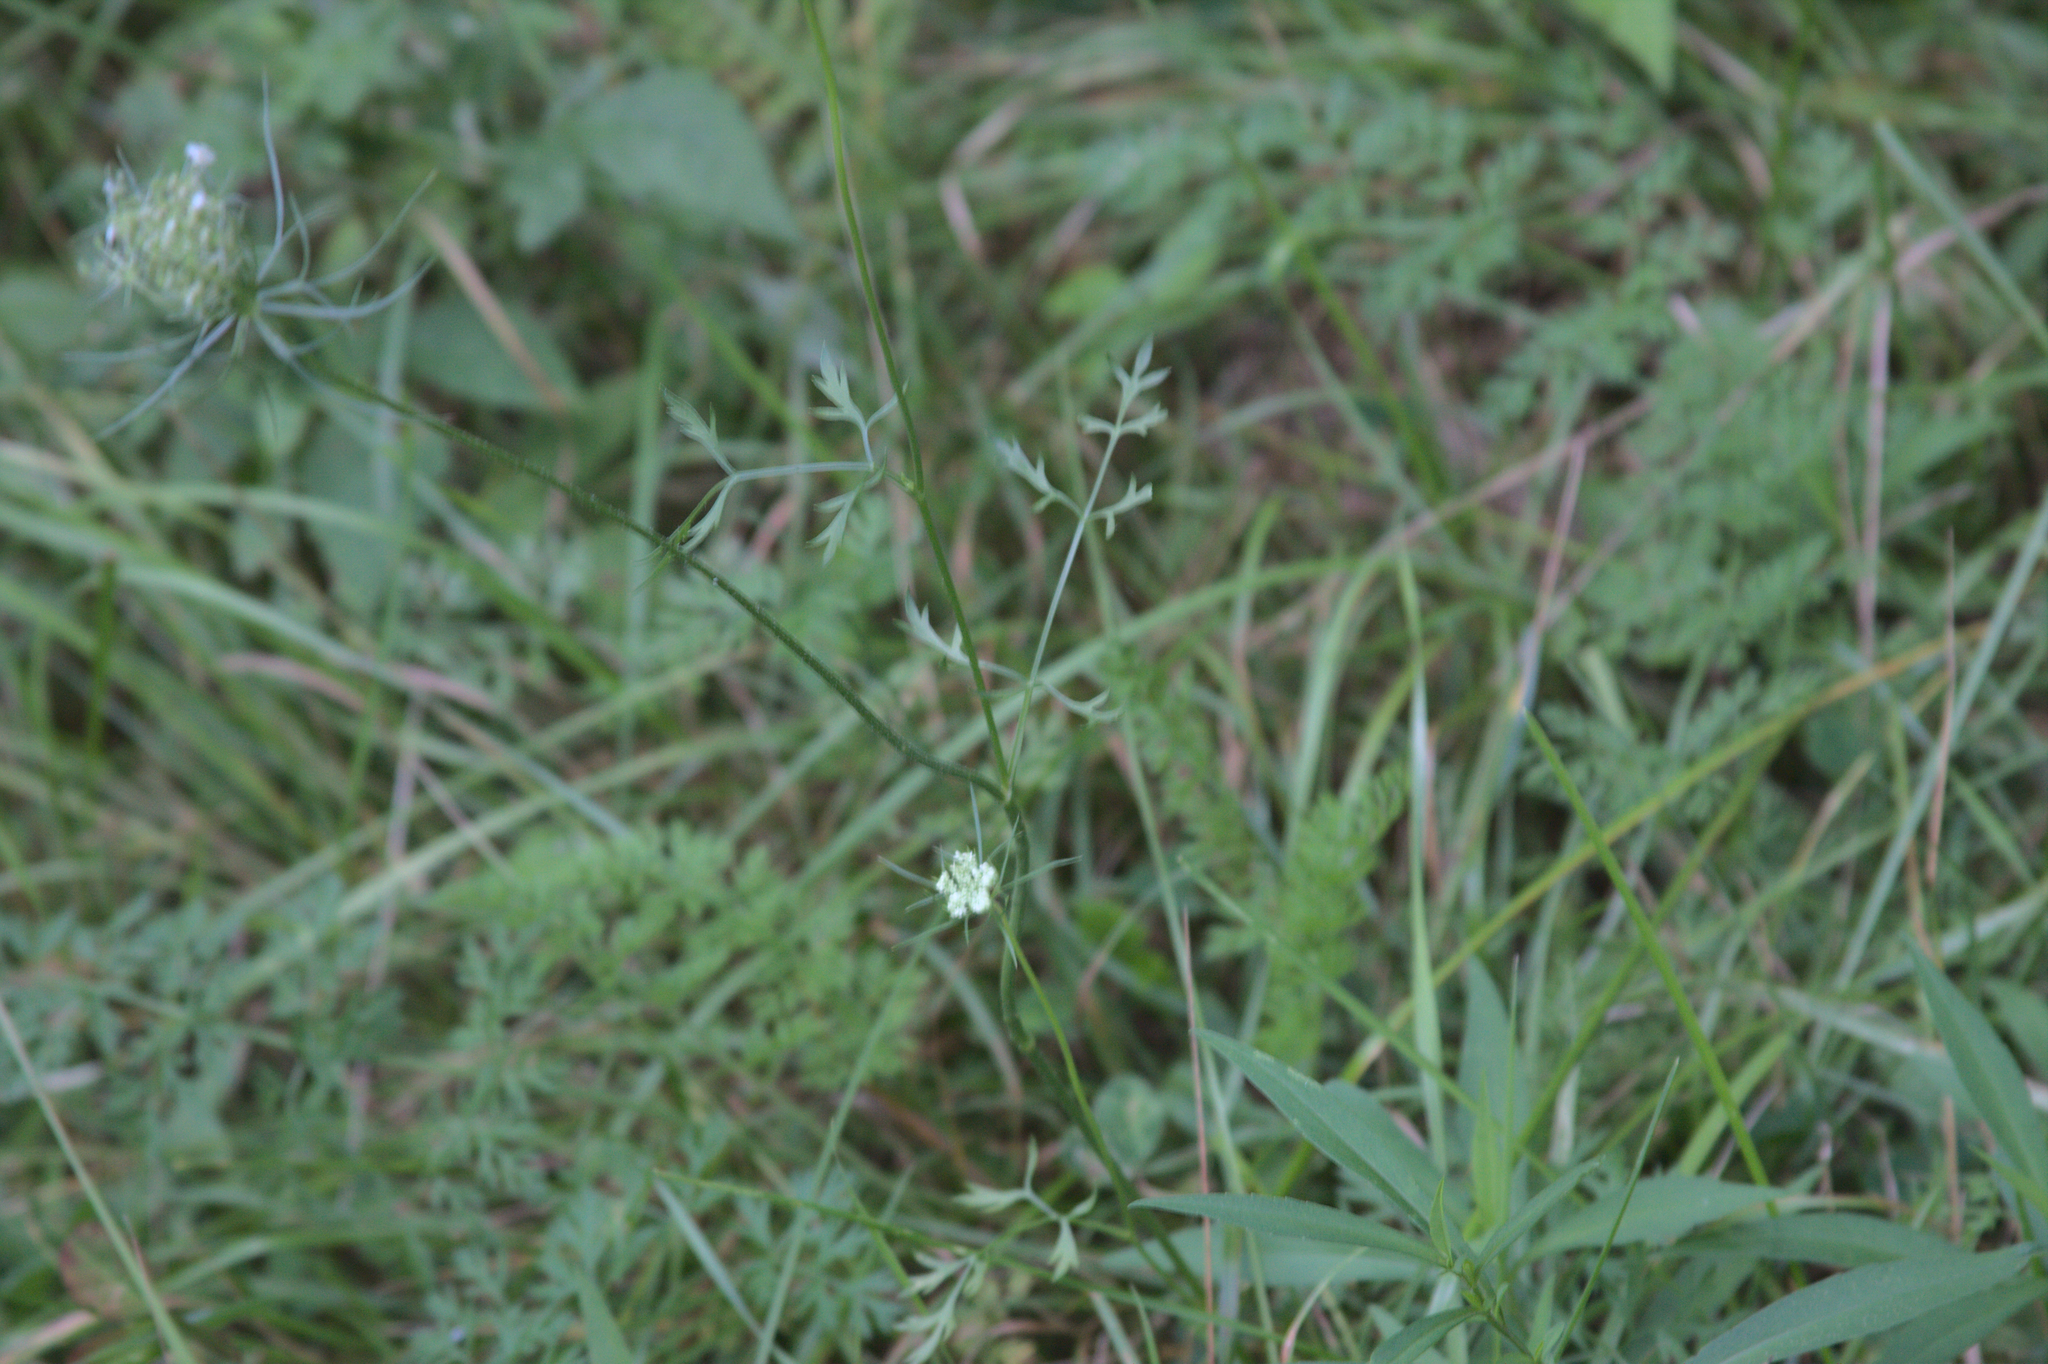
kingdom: Plantae
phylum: Tracheophyta
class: Magnoliopsida
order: Apiales
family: Apiaceae
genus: Daucus
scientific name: Daucus carota
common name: Wild carrot
